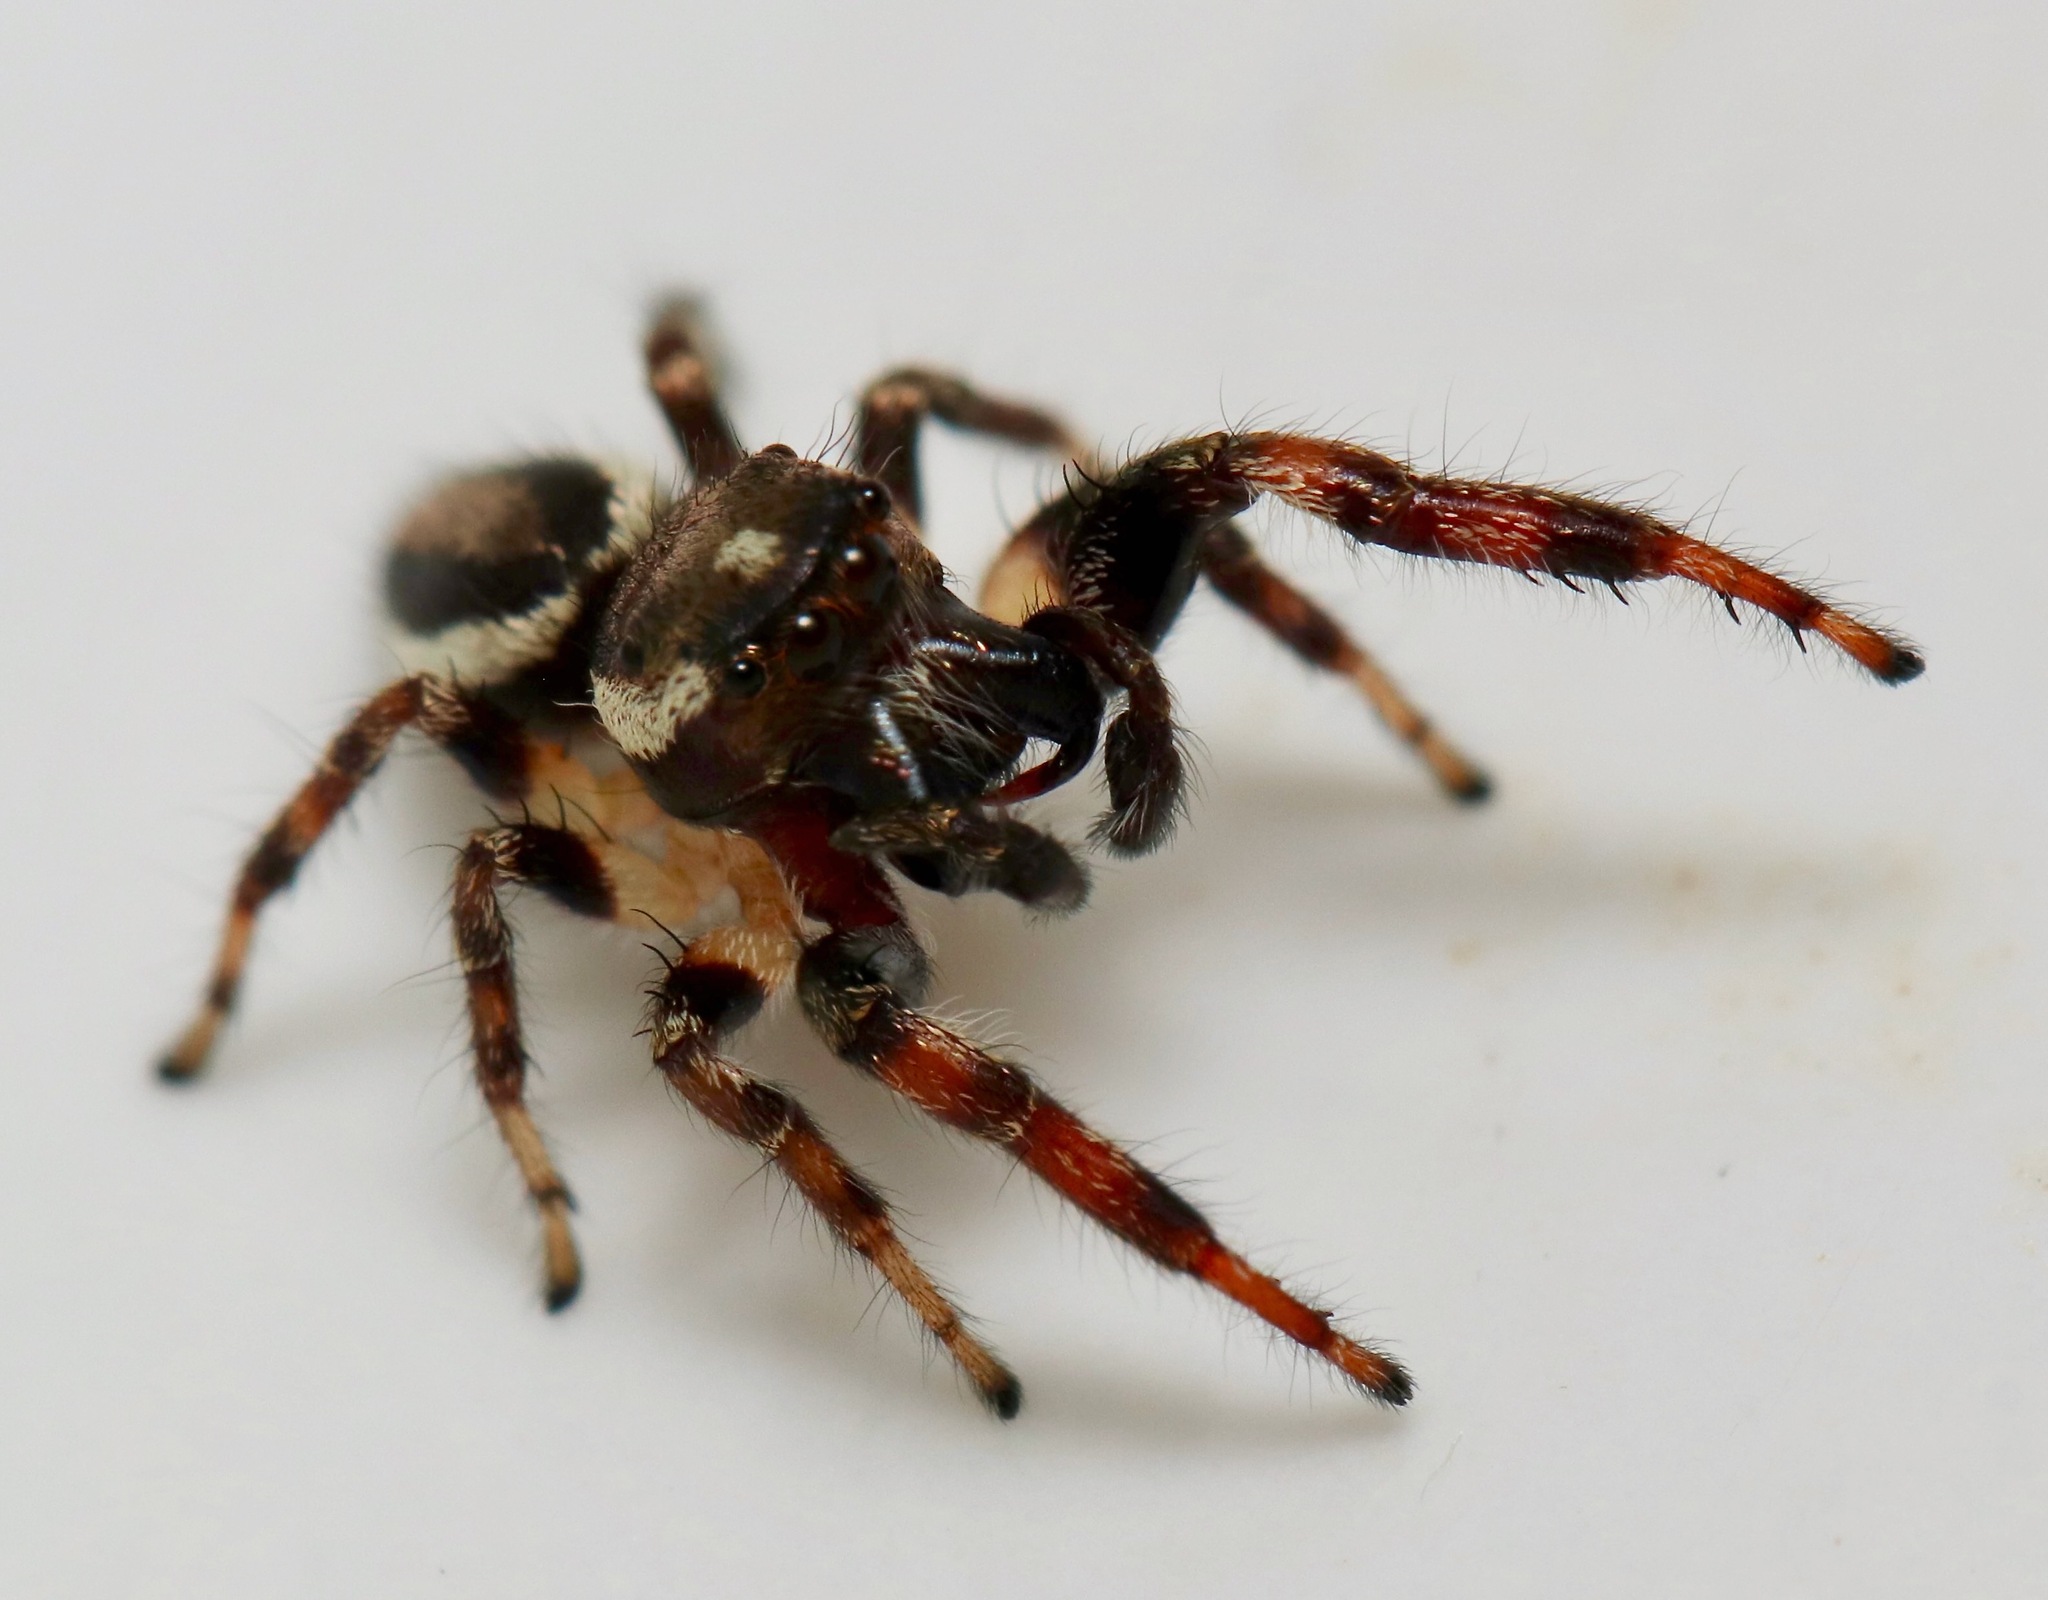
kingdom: Animalia
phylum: Arthropoda
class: Arachnida
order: Araneae
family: Salticidae
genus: Eris
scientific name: Eris militaris
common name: Bronze jumper
